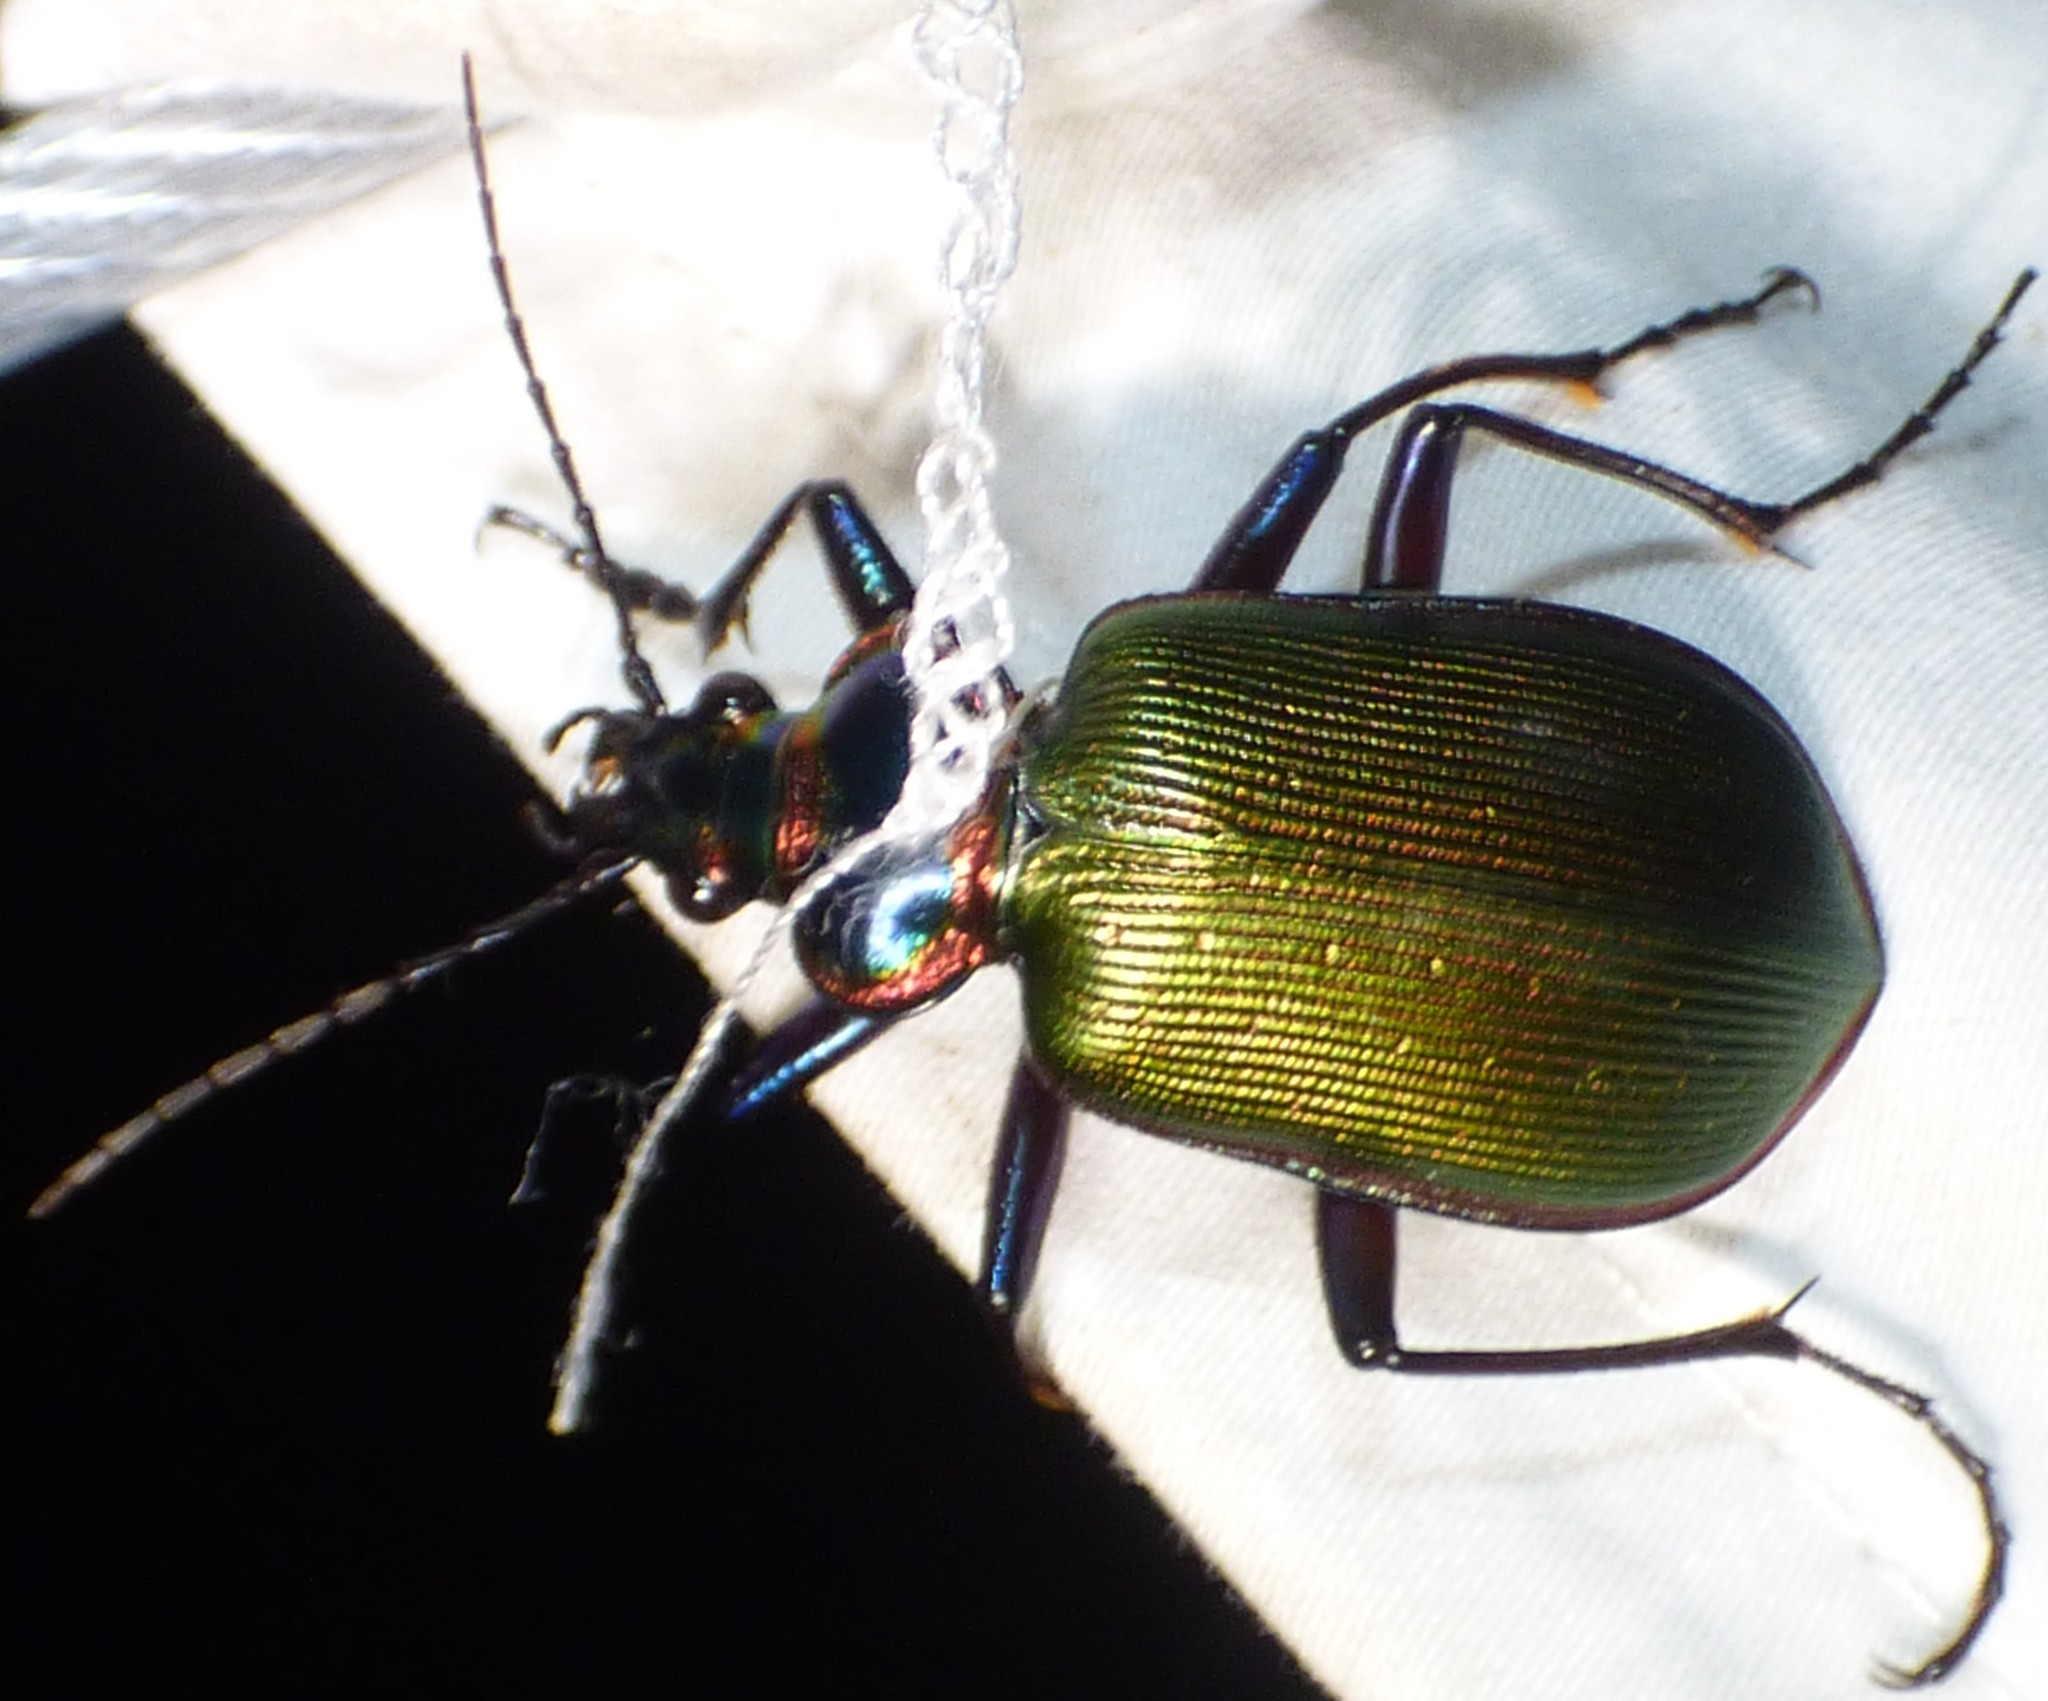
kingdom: Animalia
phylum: Arthropoda
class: Insecta
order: Coleoptera
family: Carabidae
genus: Calosoma
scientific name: Calosoma scrutator
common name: Fiery searcher beetle
